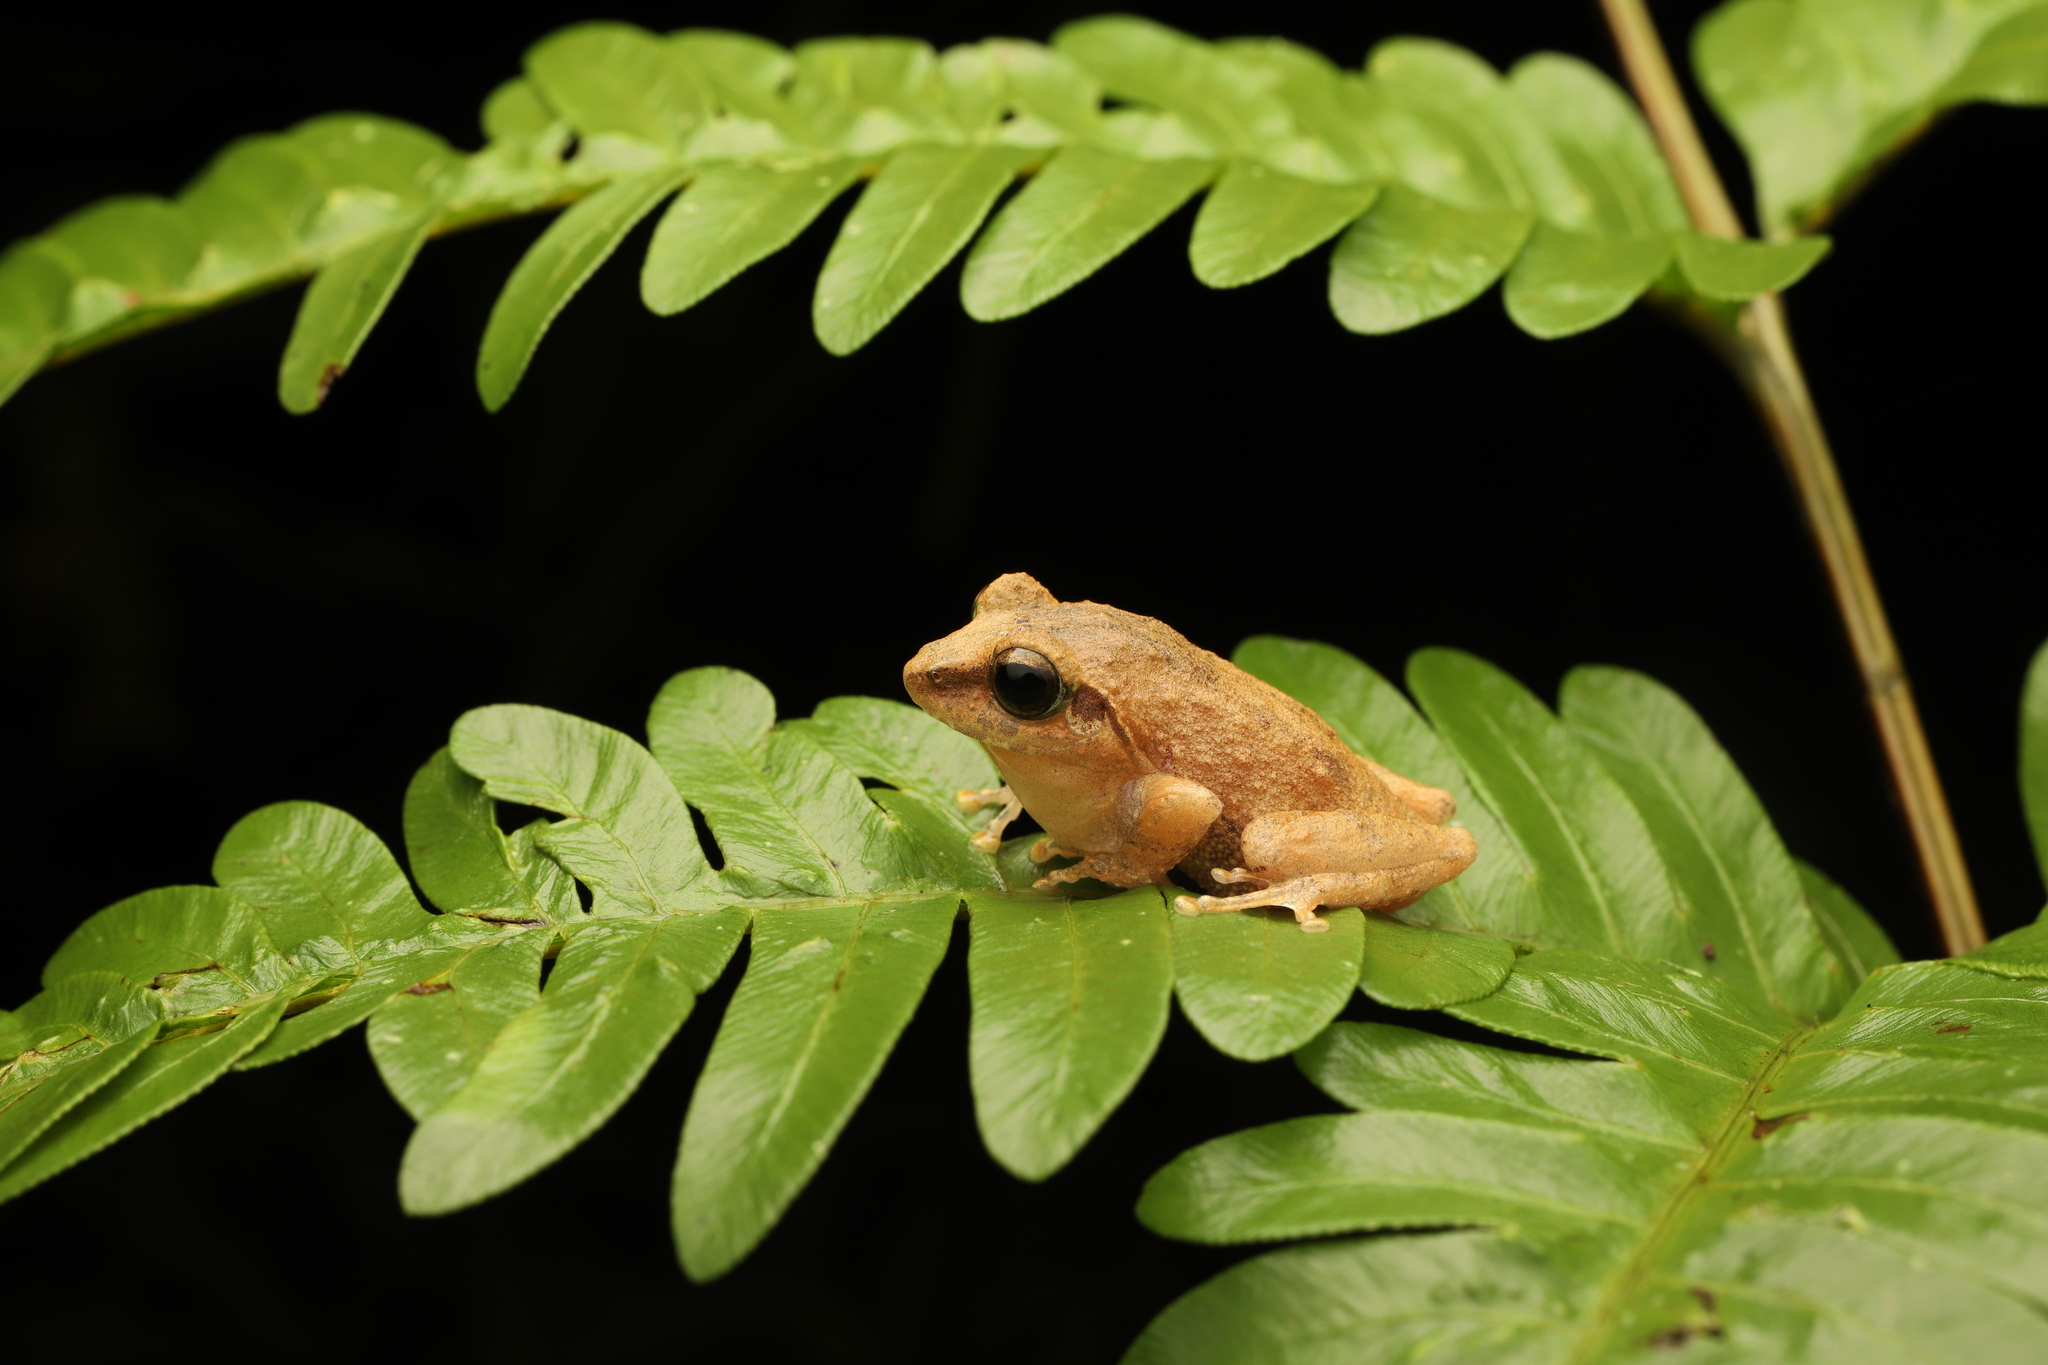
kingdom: Animalia
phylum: Chordata
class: Amphibia
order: Anura
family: Rhacophoridae
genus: Pseudophilautus
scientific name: Pseudophilautus wynaadensis
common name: Dark-eared bush frog
